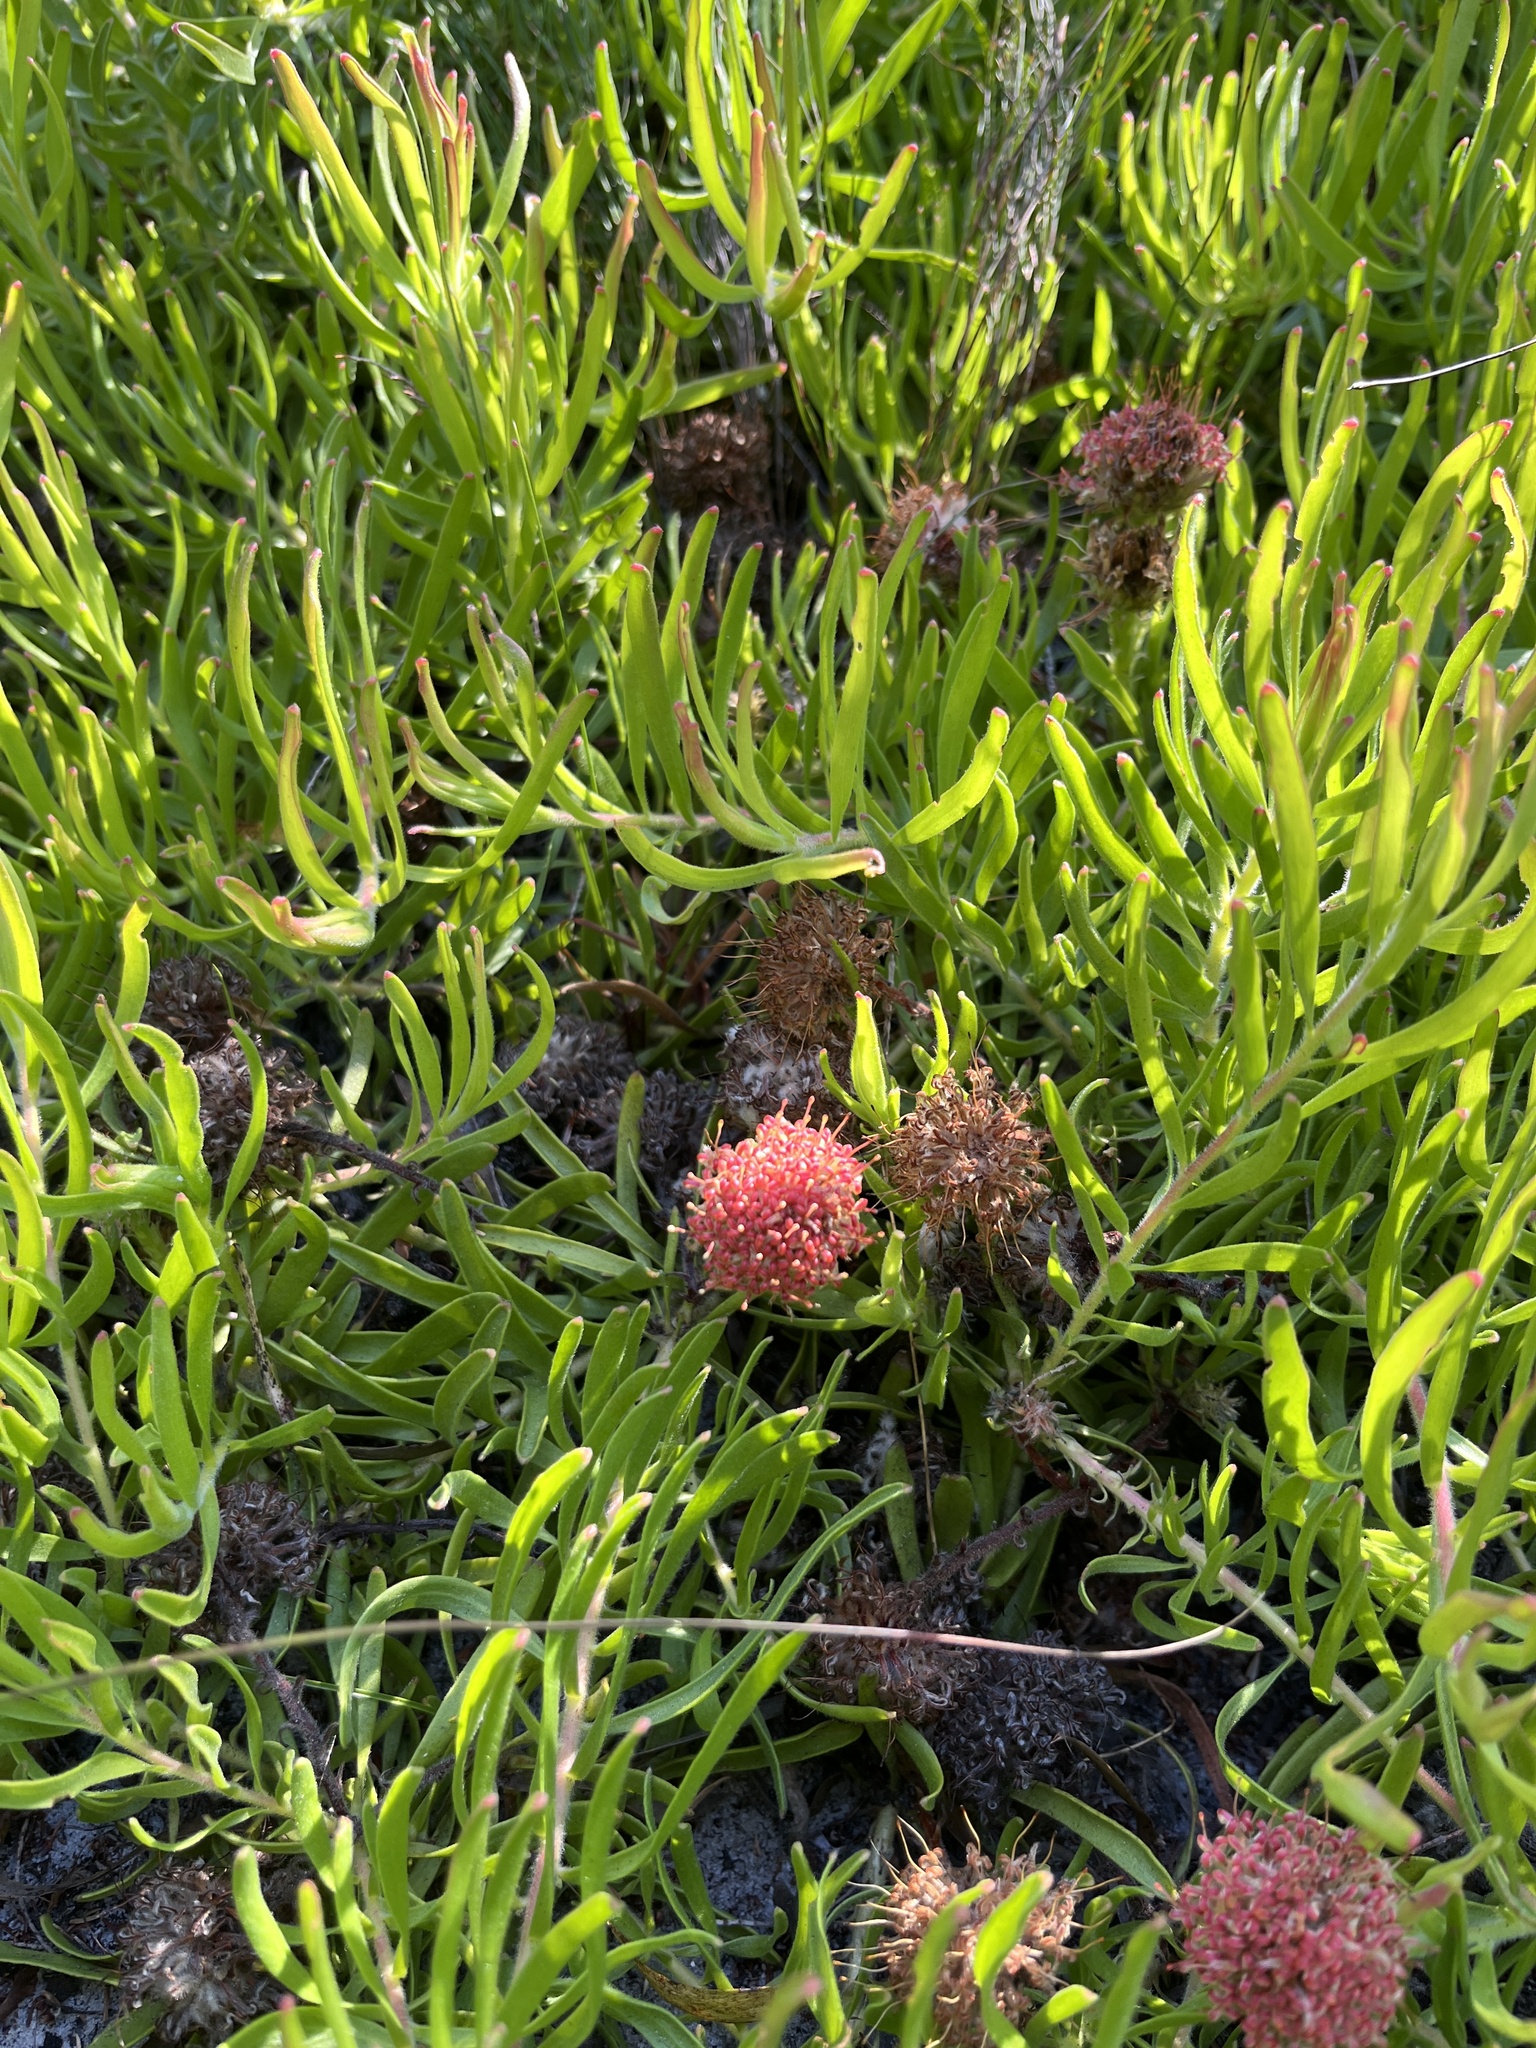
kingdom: Plantae
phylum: Tracheophyta
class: Magnoliopsida
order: Proteales
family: Proteaceae
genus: Leucospermum
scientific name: Leucospermum pedunculatum
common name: White-trailing pincushion
